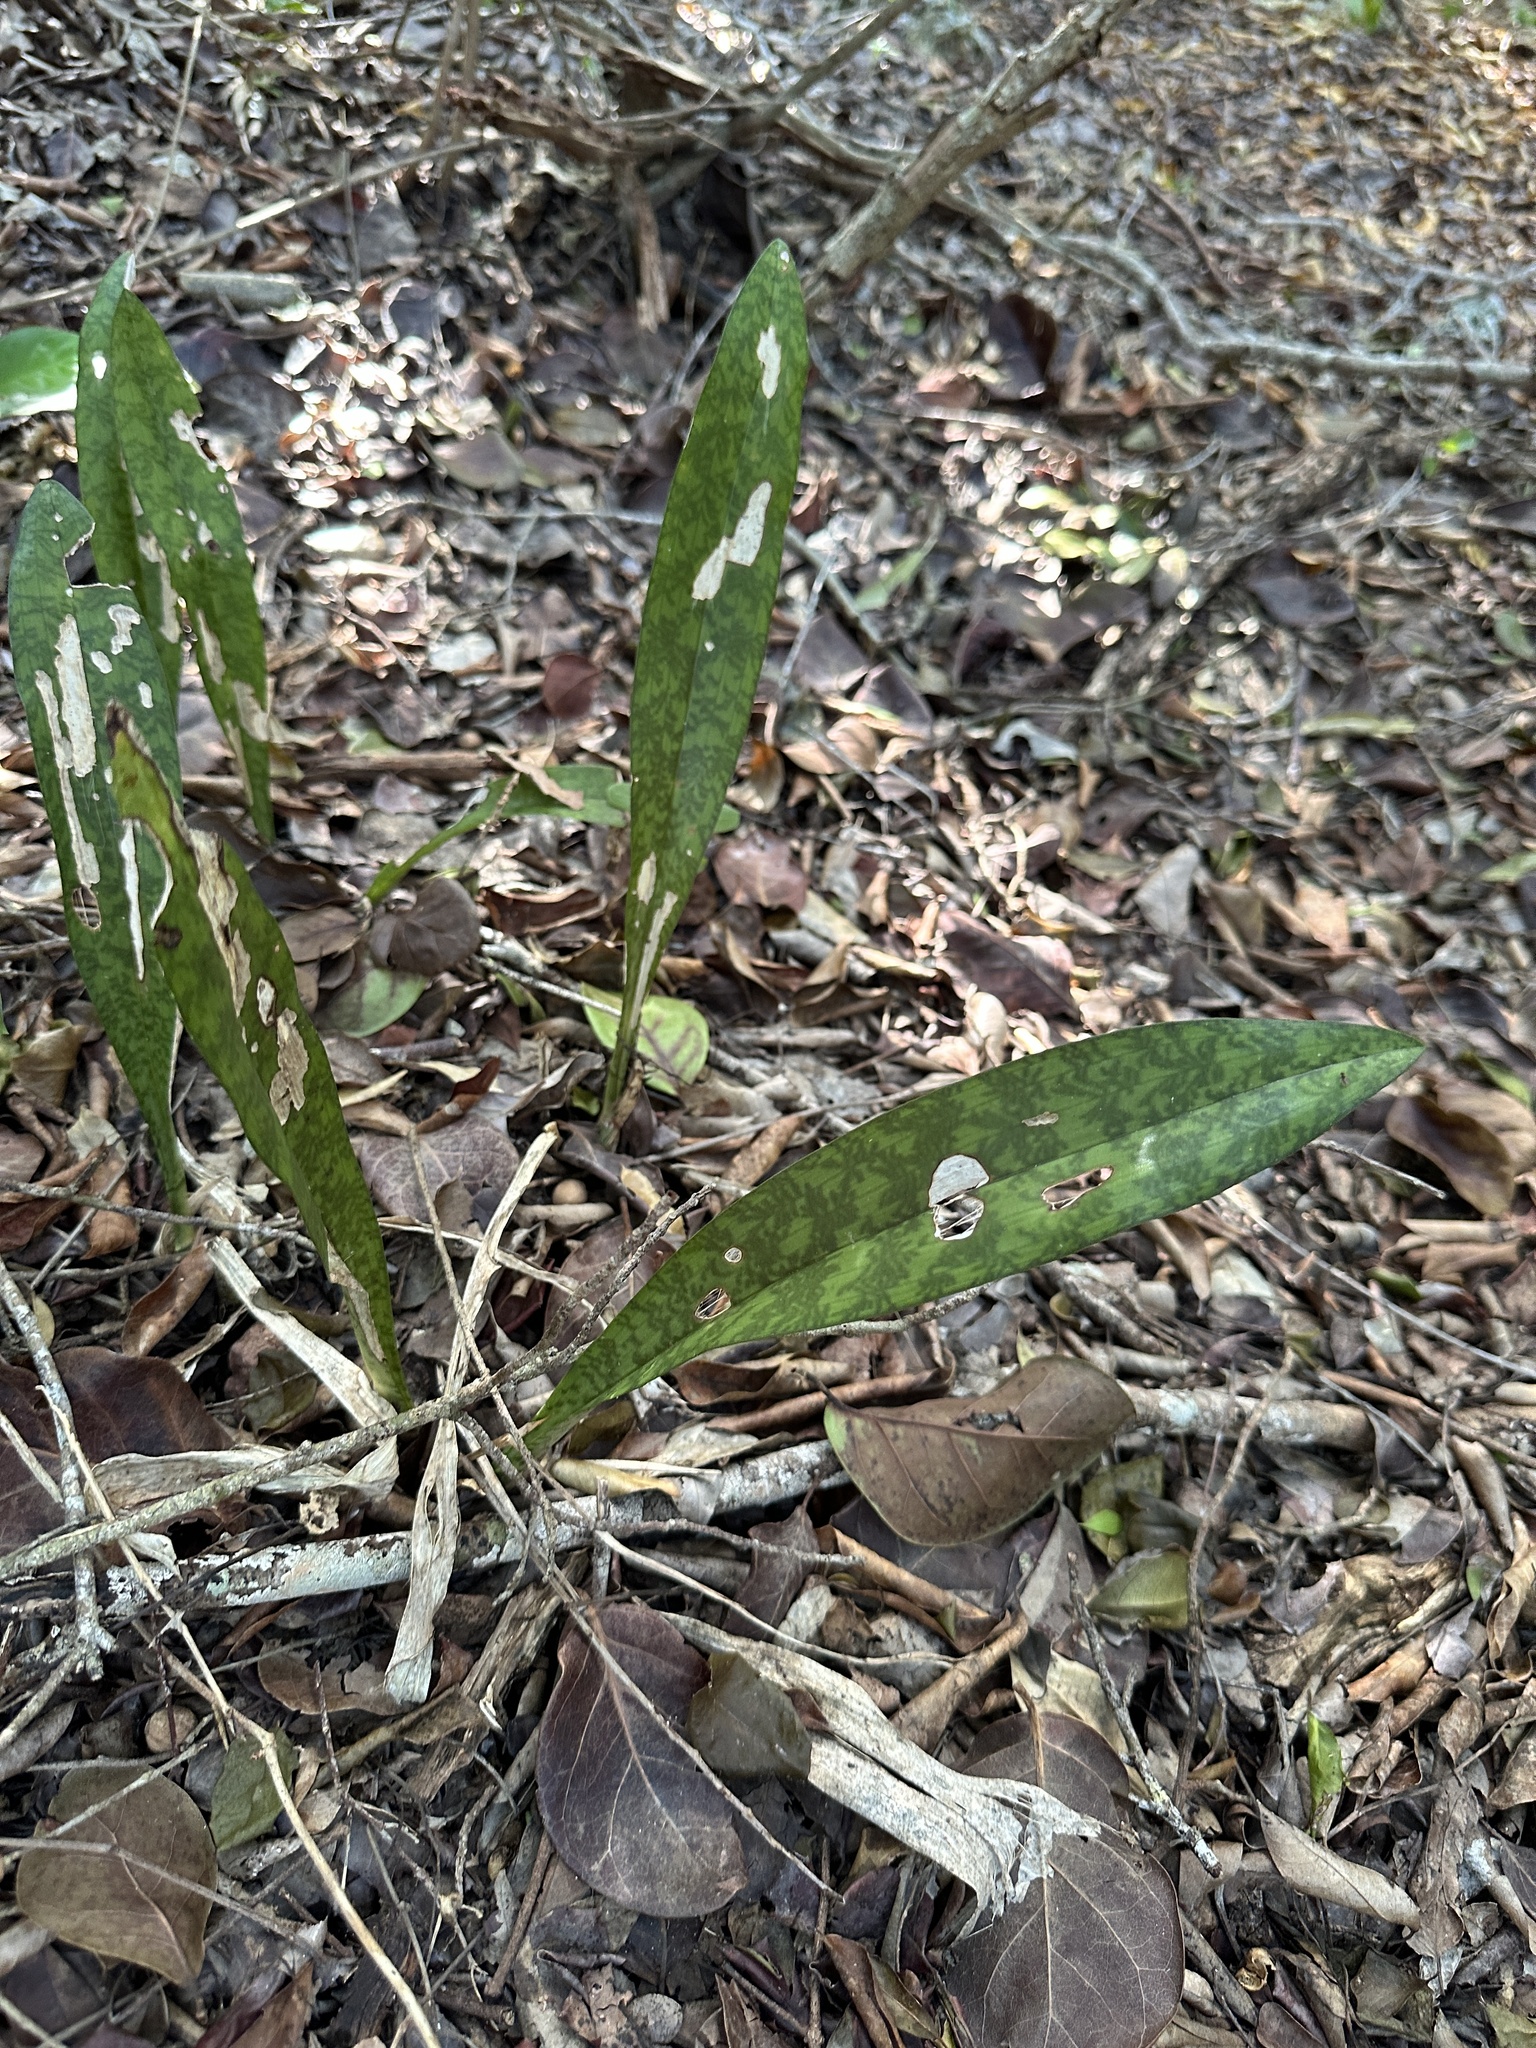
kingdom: Plantae
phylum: Tracheophyta
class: Liliopsida
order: Asparagales
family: Asparagaceae
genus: Dracaena
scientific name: Dracaena hyacinthoides
